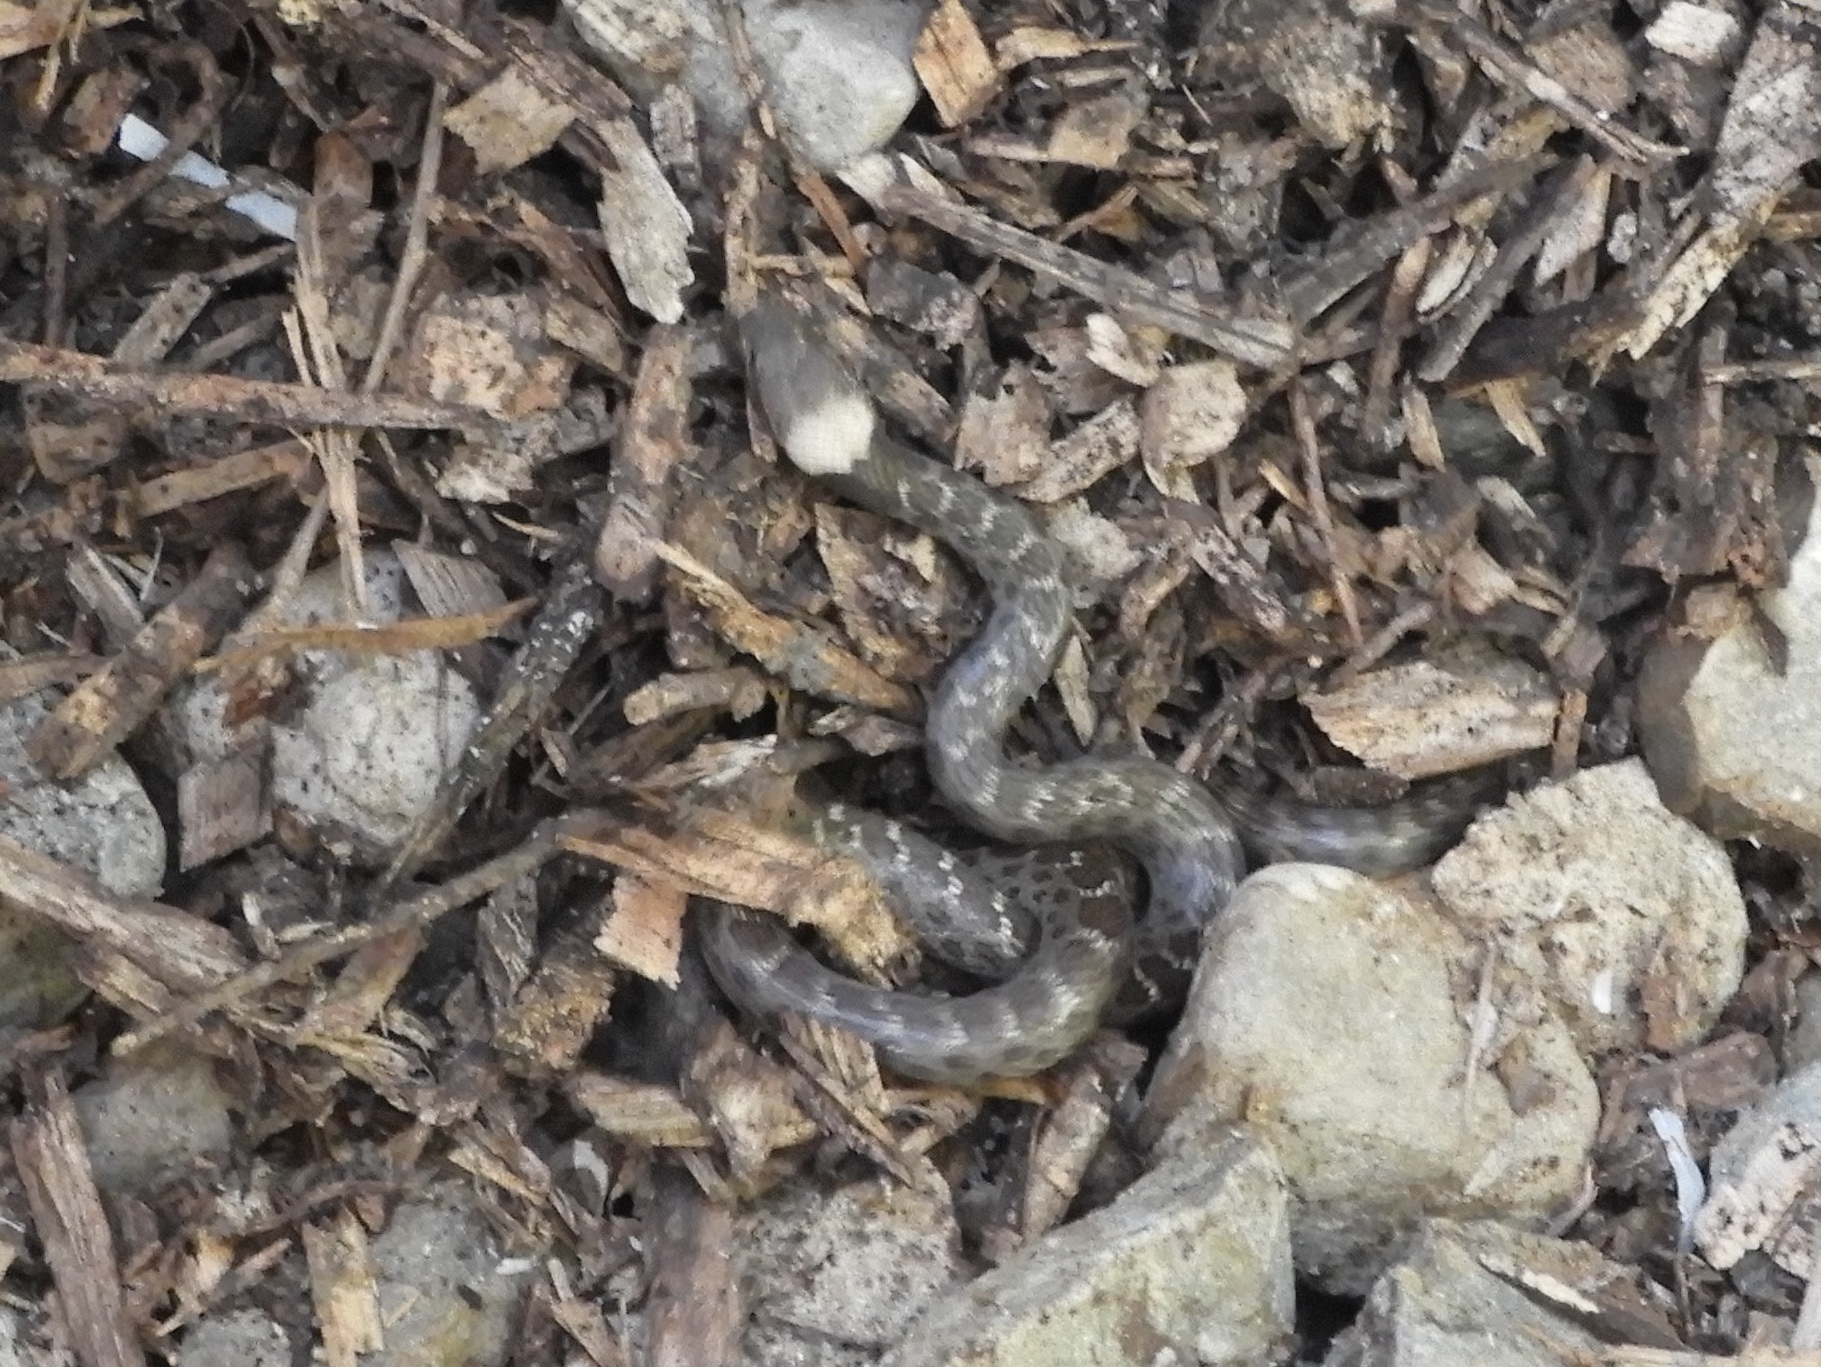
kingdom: Animalia
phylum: Chordata
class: Squamata
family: Colubridae
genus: Hypsiglena
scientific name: Hypsiglena torquata
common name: Night snake
